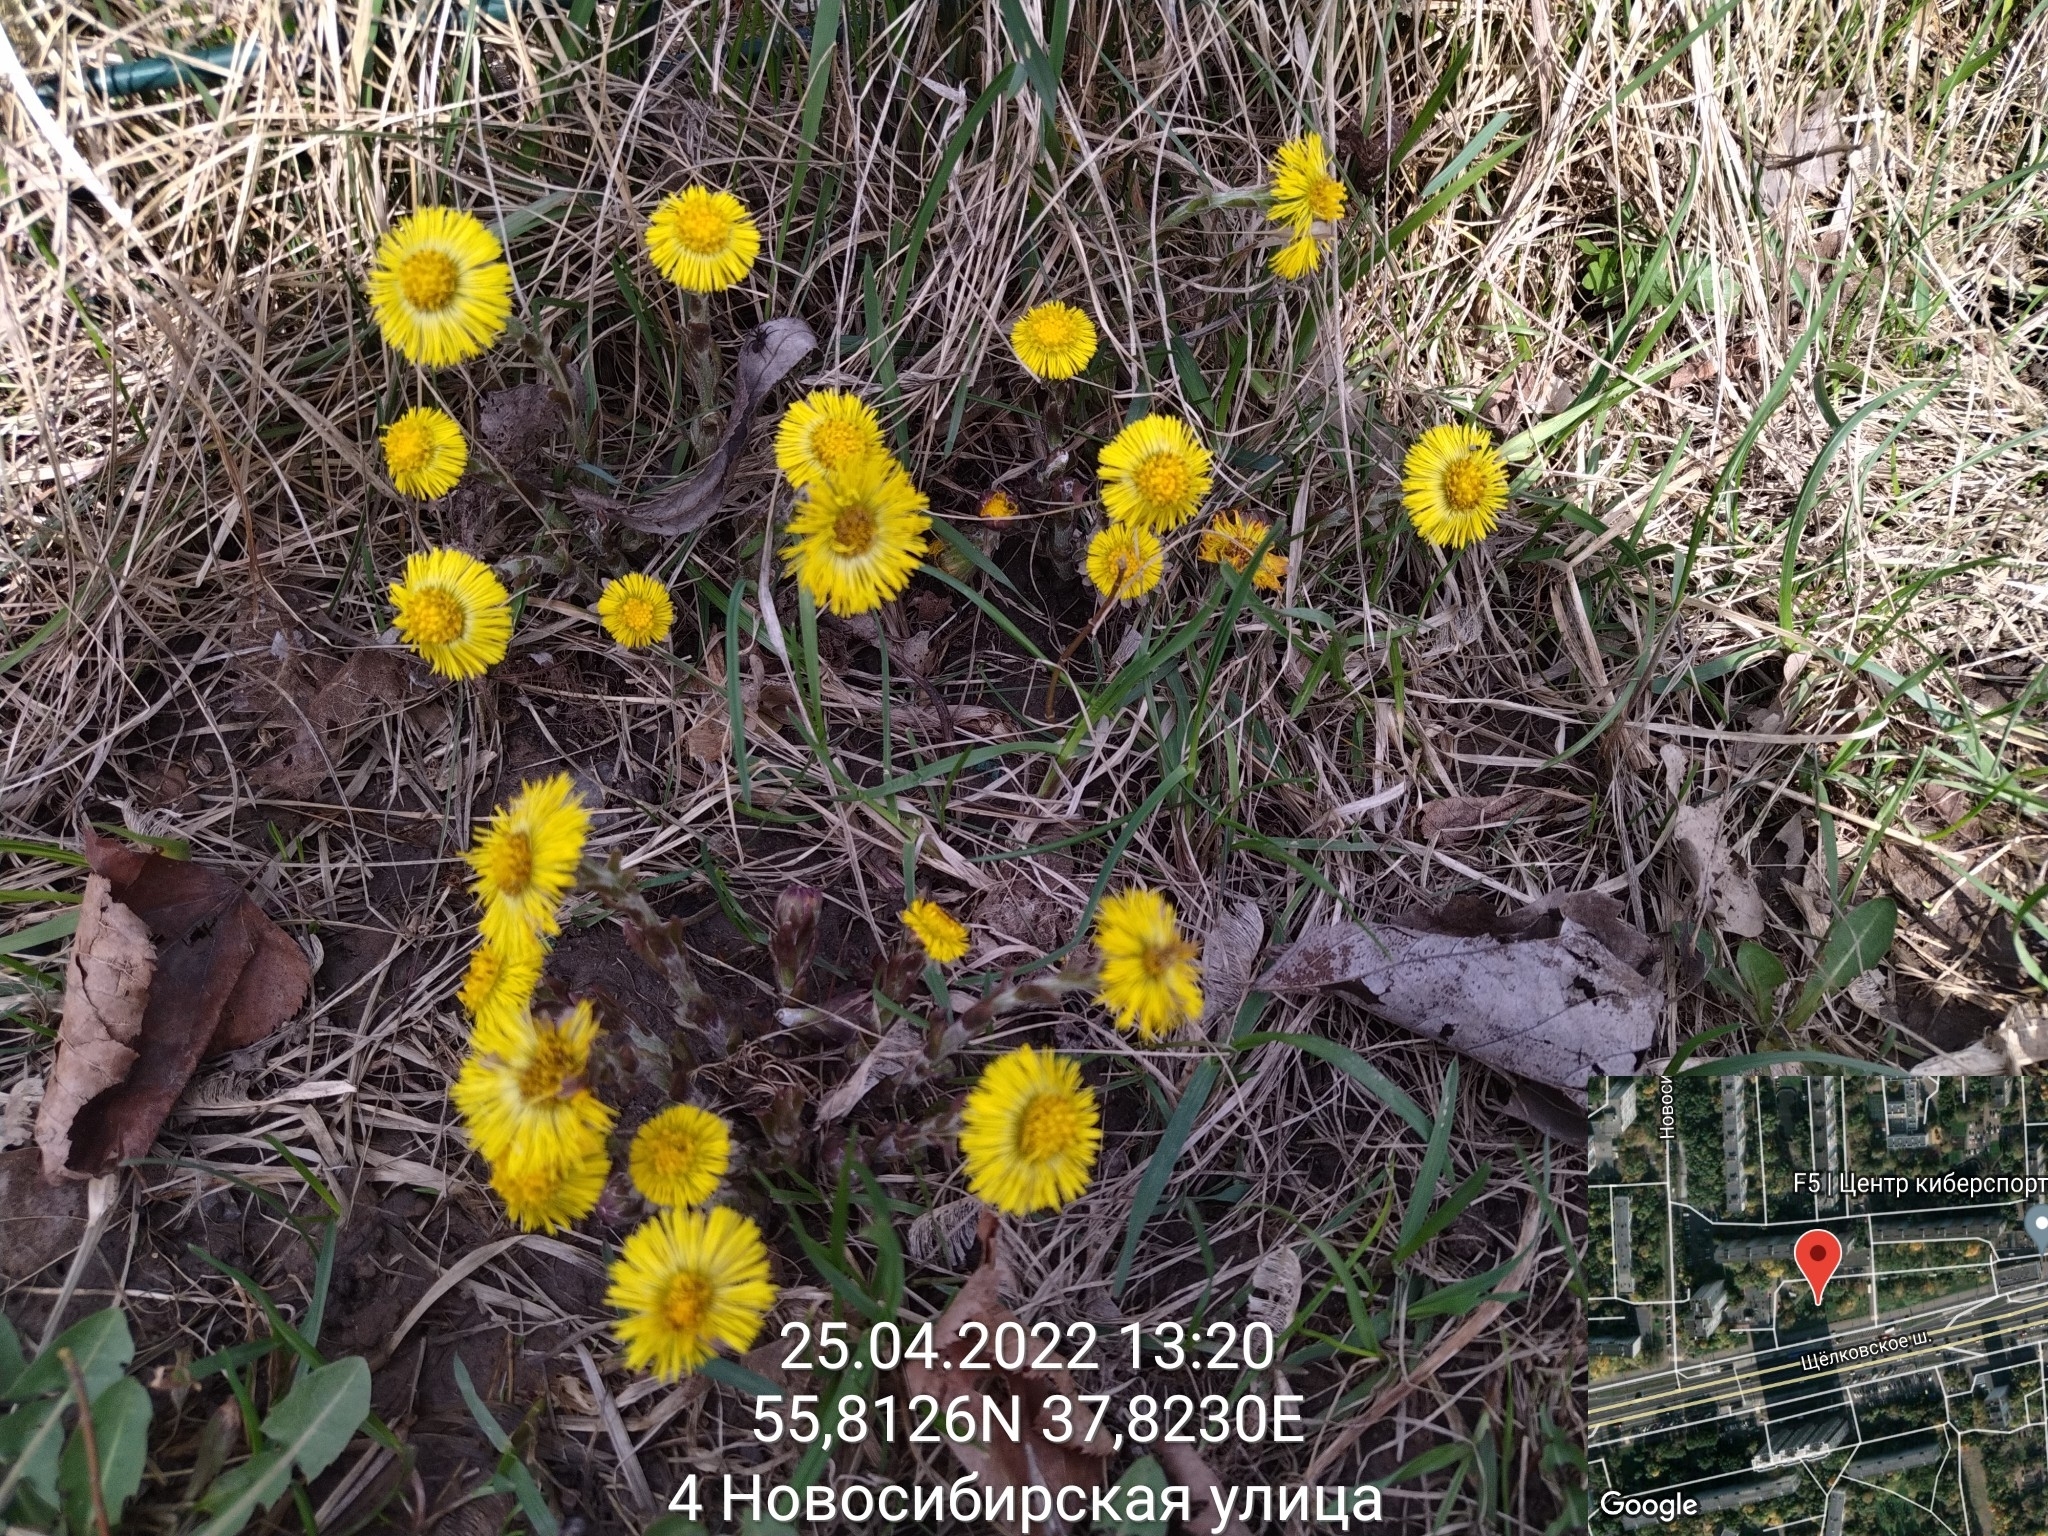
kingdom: Plantae
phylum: Tracheophyta
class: Magnoliopsida
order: Asterales
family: Asteraceae
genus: Tussilago
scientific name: Tussilago farfara
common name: Coltsfoot
